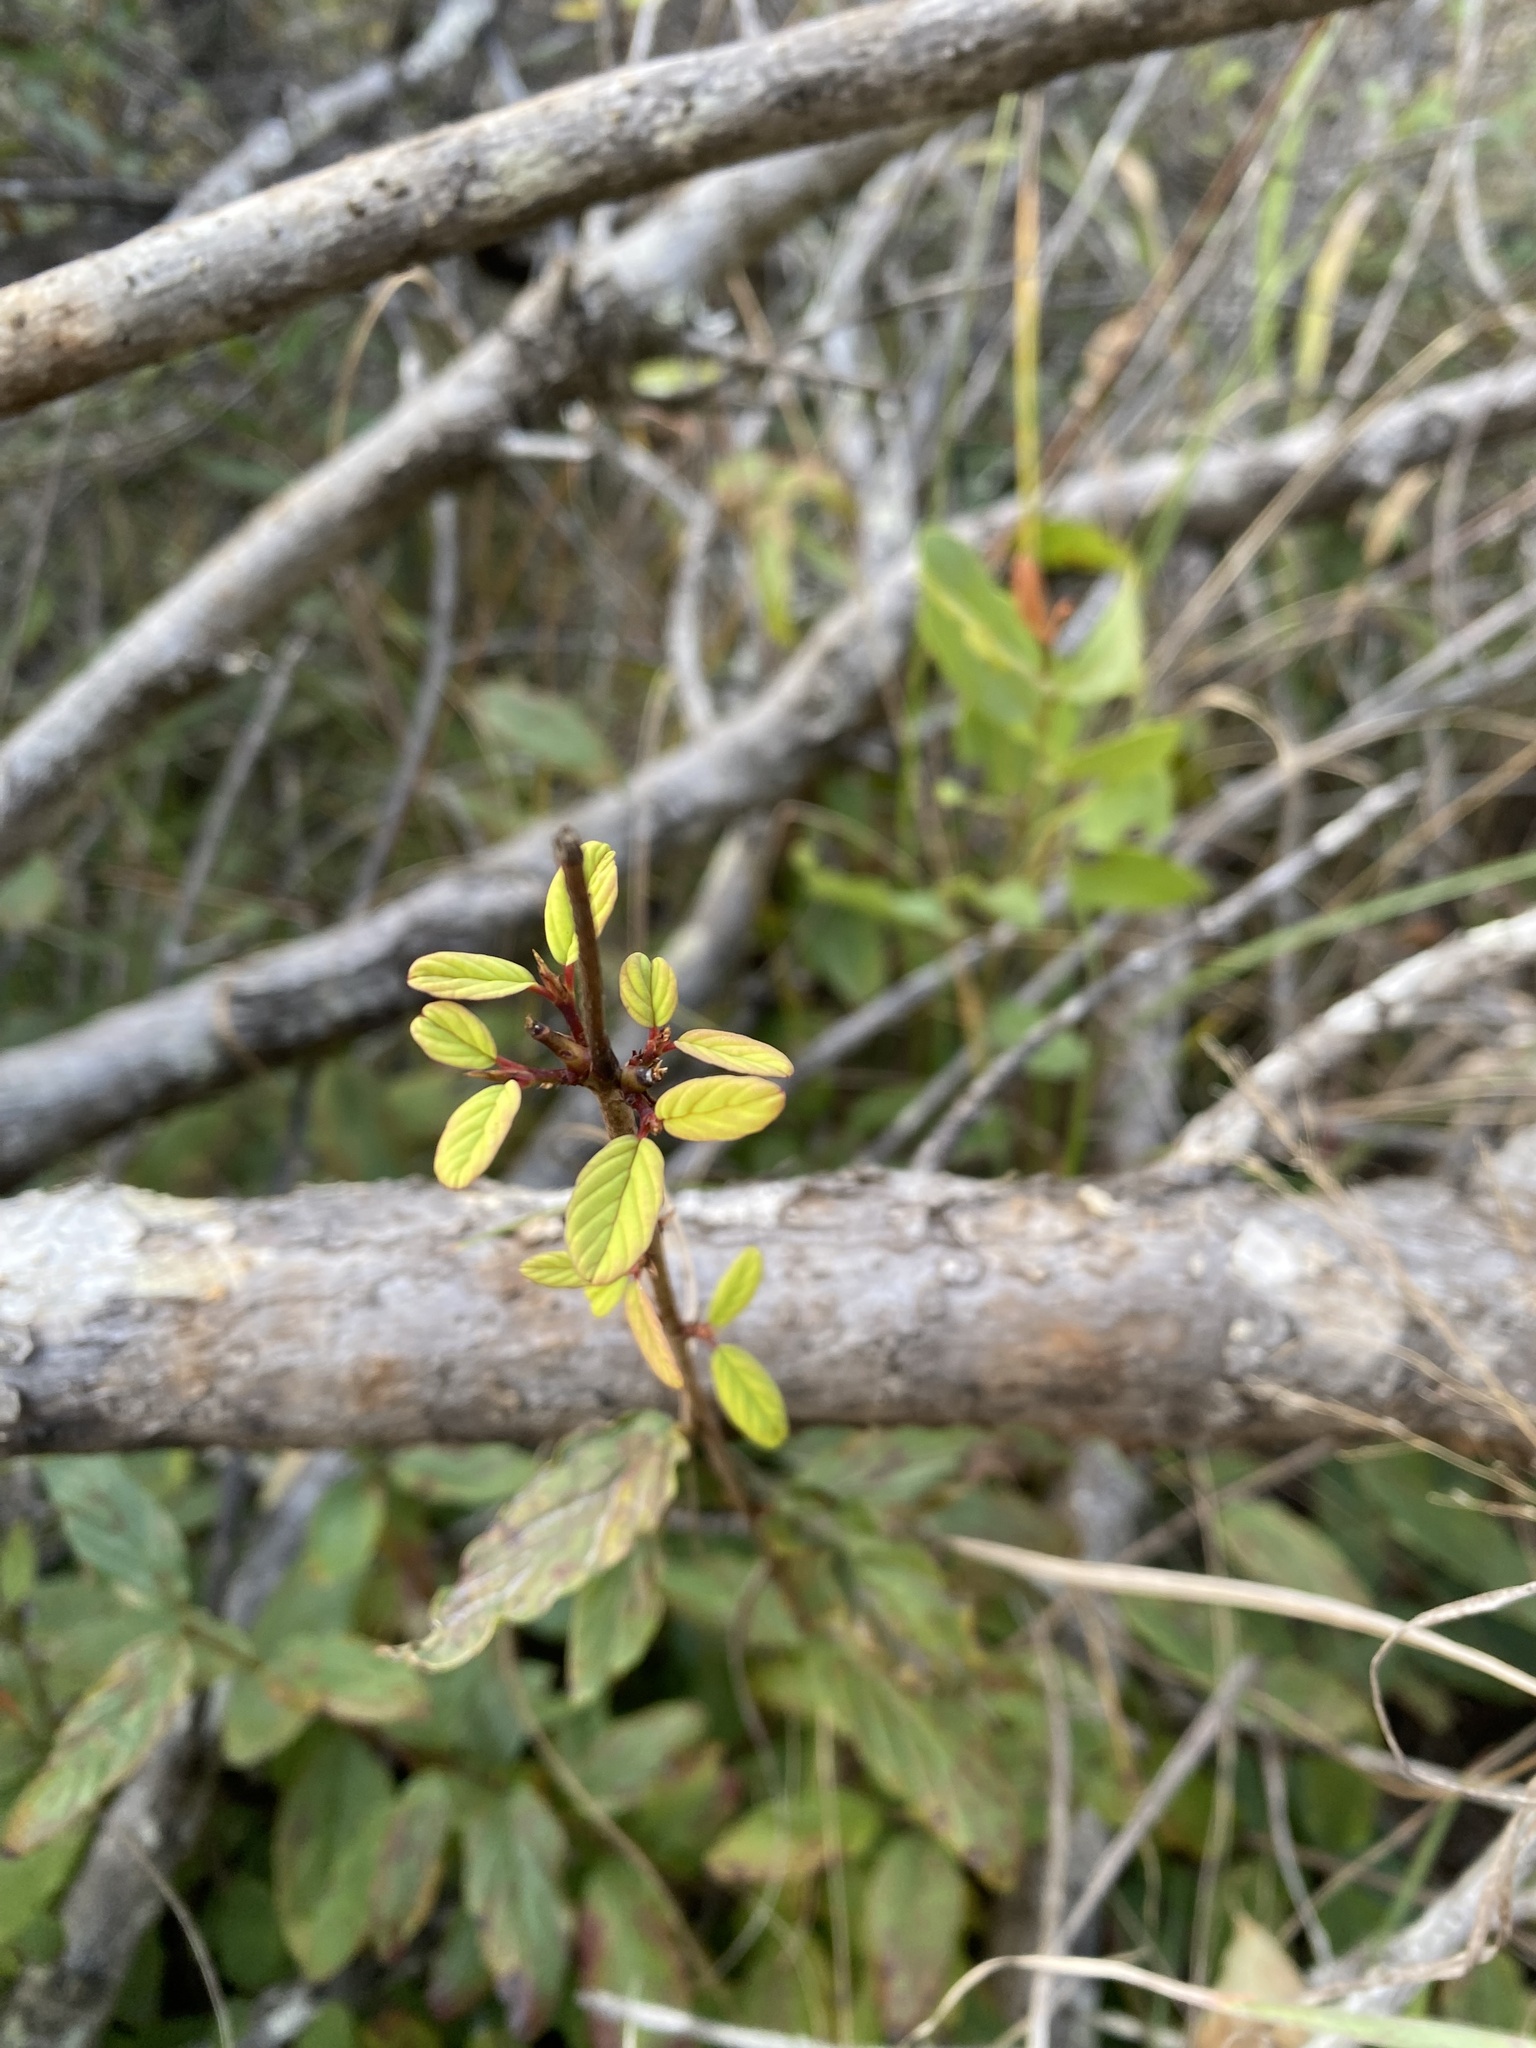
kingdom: Plantae
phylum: Tracheophyta
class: Magnoliopsida
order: Rosales
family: Rhamnaceae
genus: Phyllogeiton
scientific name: Phyllogeiton zeyheri
